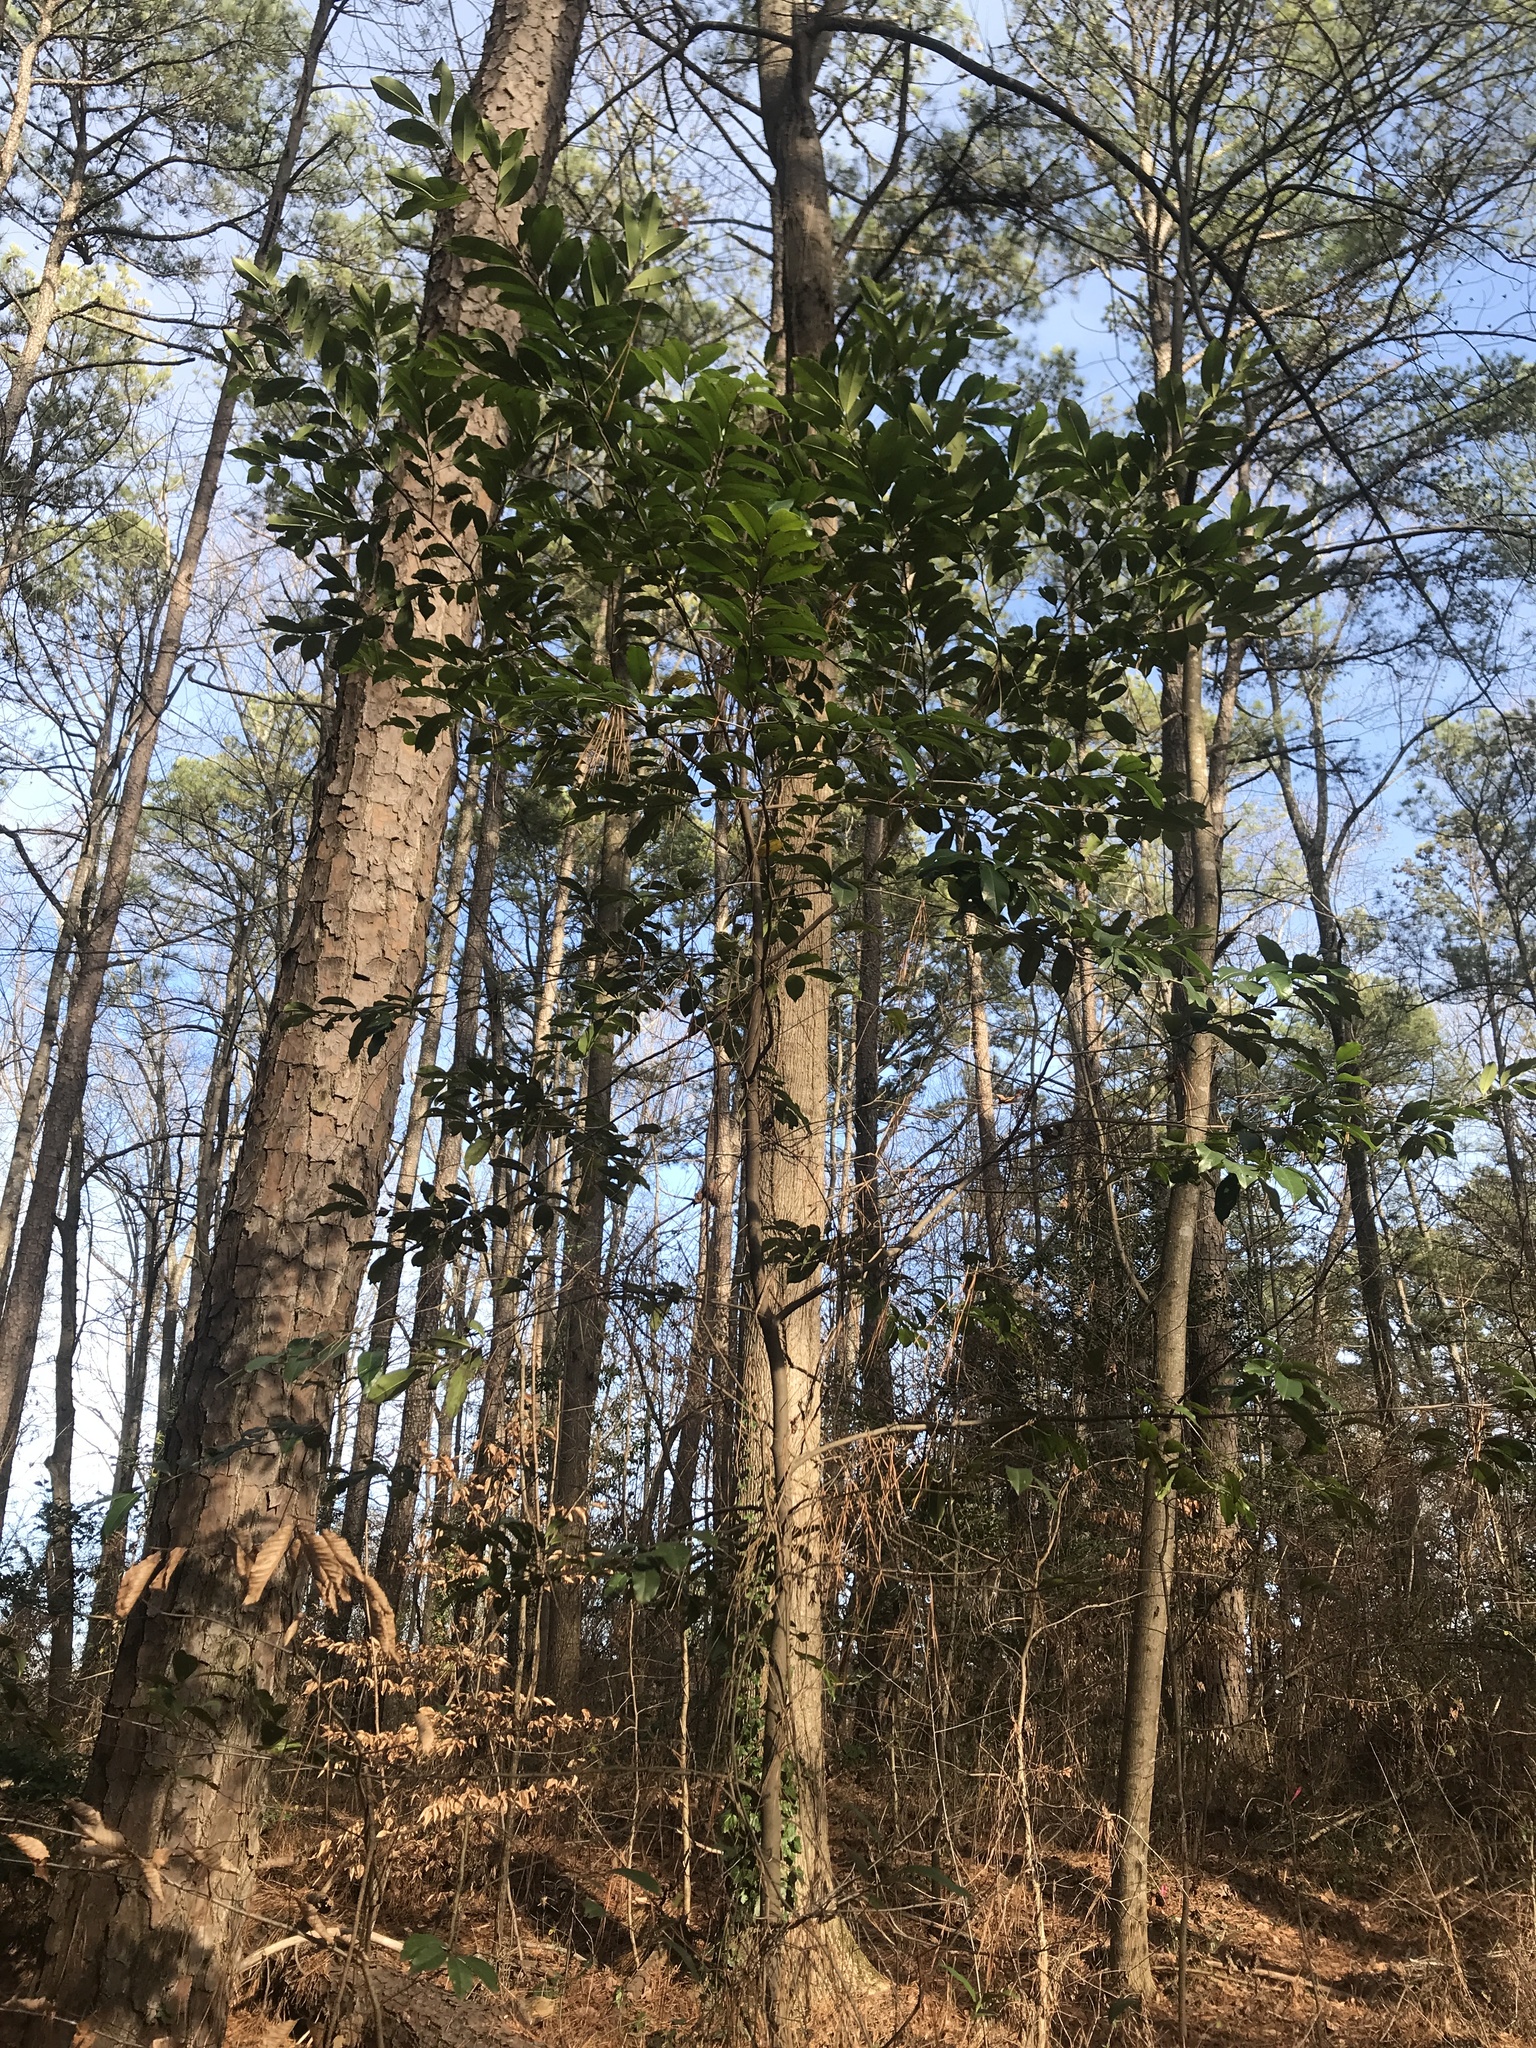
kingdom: Plantae
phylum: Tracheophyta
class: Magnoliopsida
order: Rosales
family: Rosaceae
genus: Prunus
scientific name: Prunus caroliniana
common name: Carolina laurel cherry
